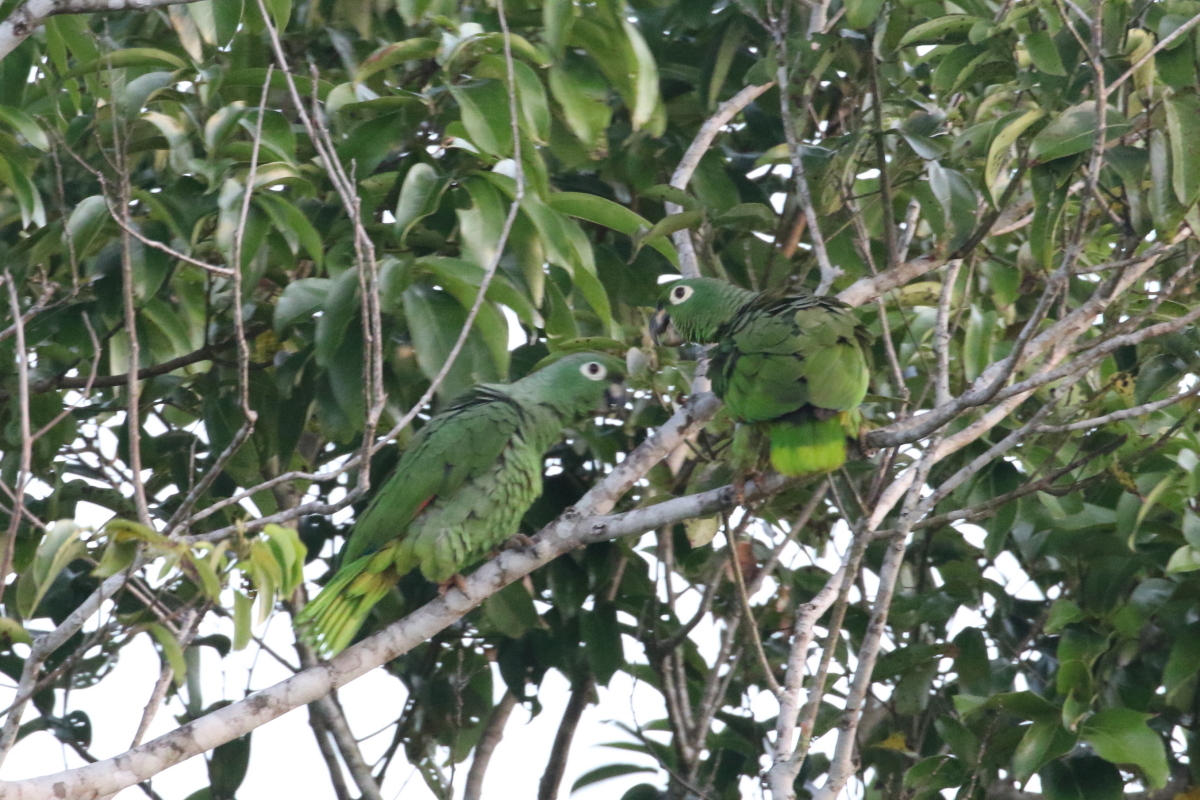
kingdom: Animalia
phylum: Chordata
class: Aves
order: Psittaciformes
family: Psittacidae
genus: Amazona
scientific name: Amazona farinosa
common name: Mealy parrot
